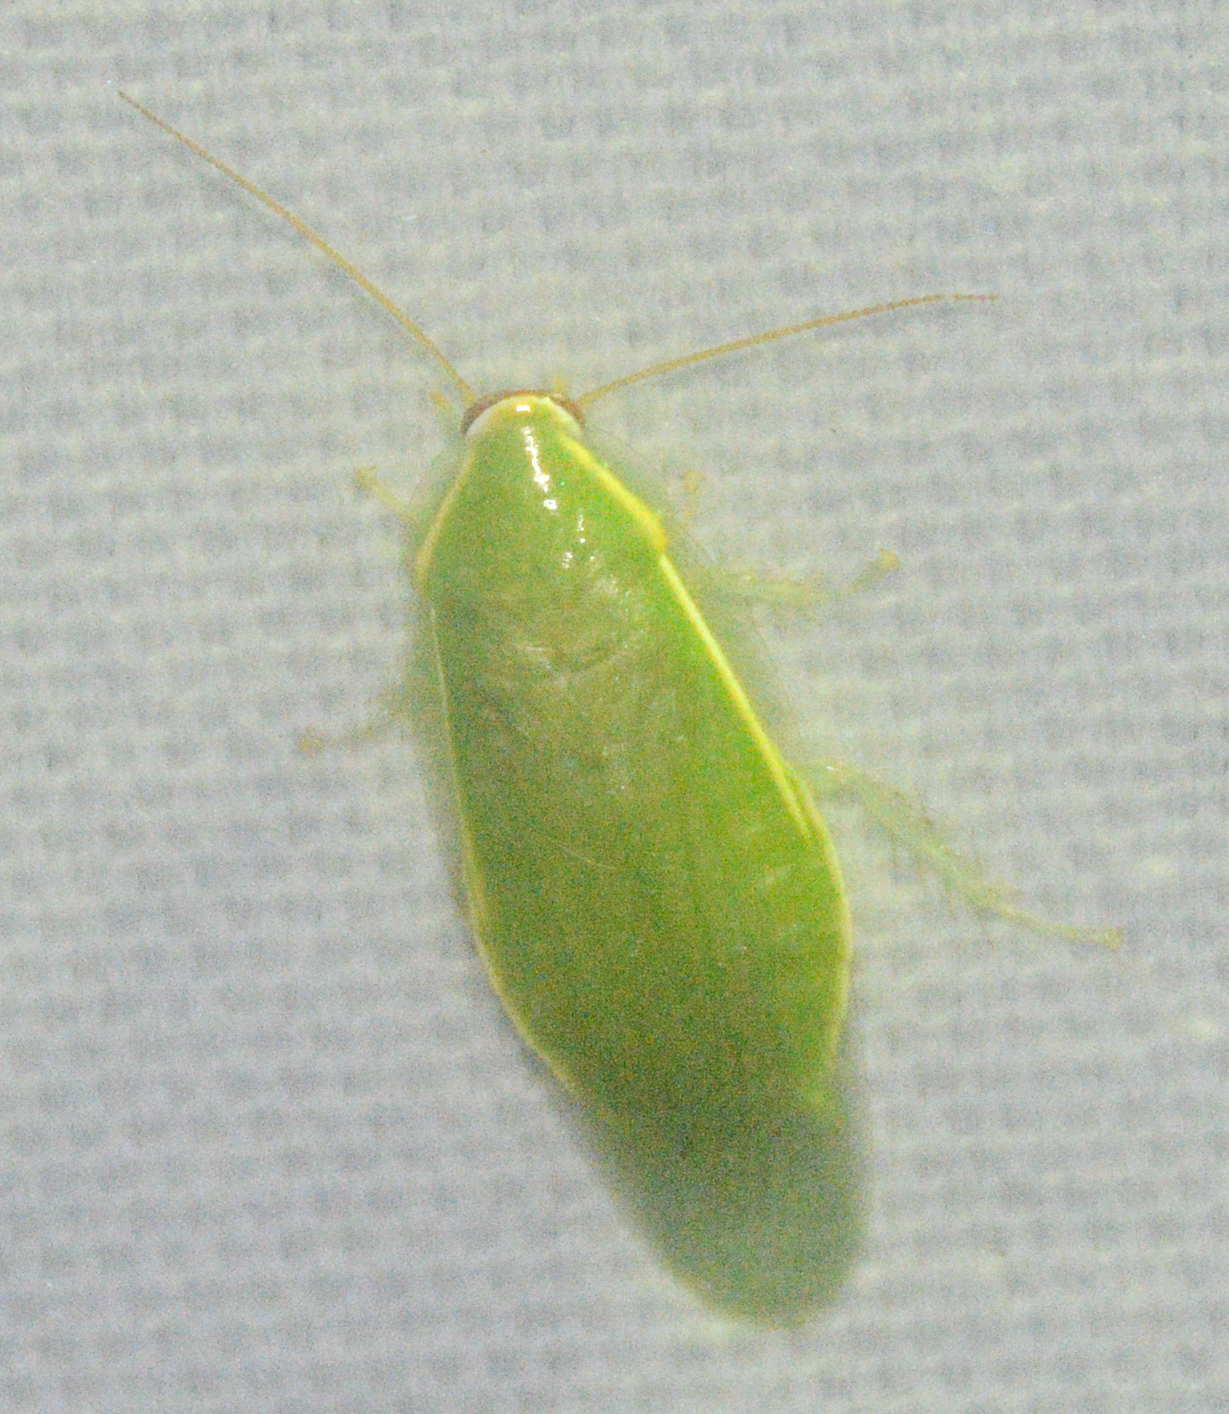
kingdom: Animalia
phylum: Arthropoda
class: Insecta
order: Blattodea
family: Blaberidae
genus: Panchlora
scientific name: Panchlora nivea
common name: Cuban cockroach
